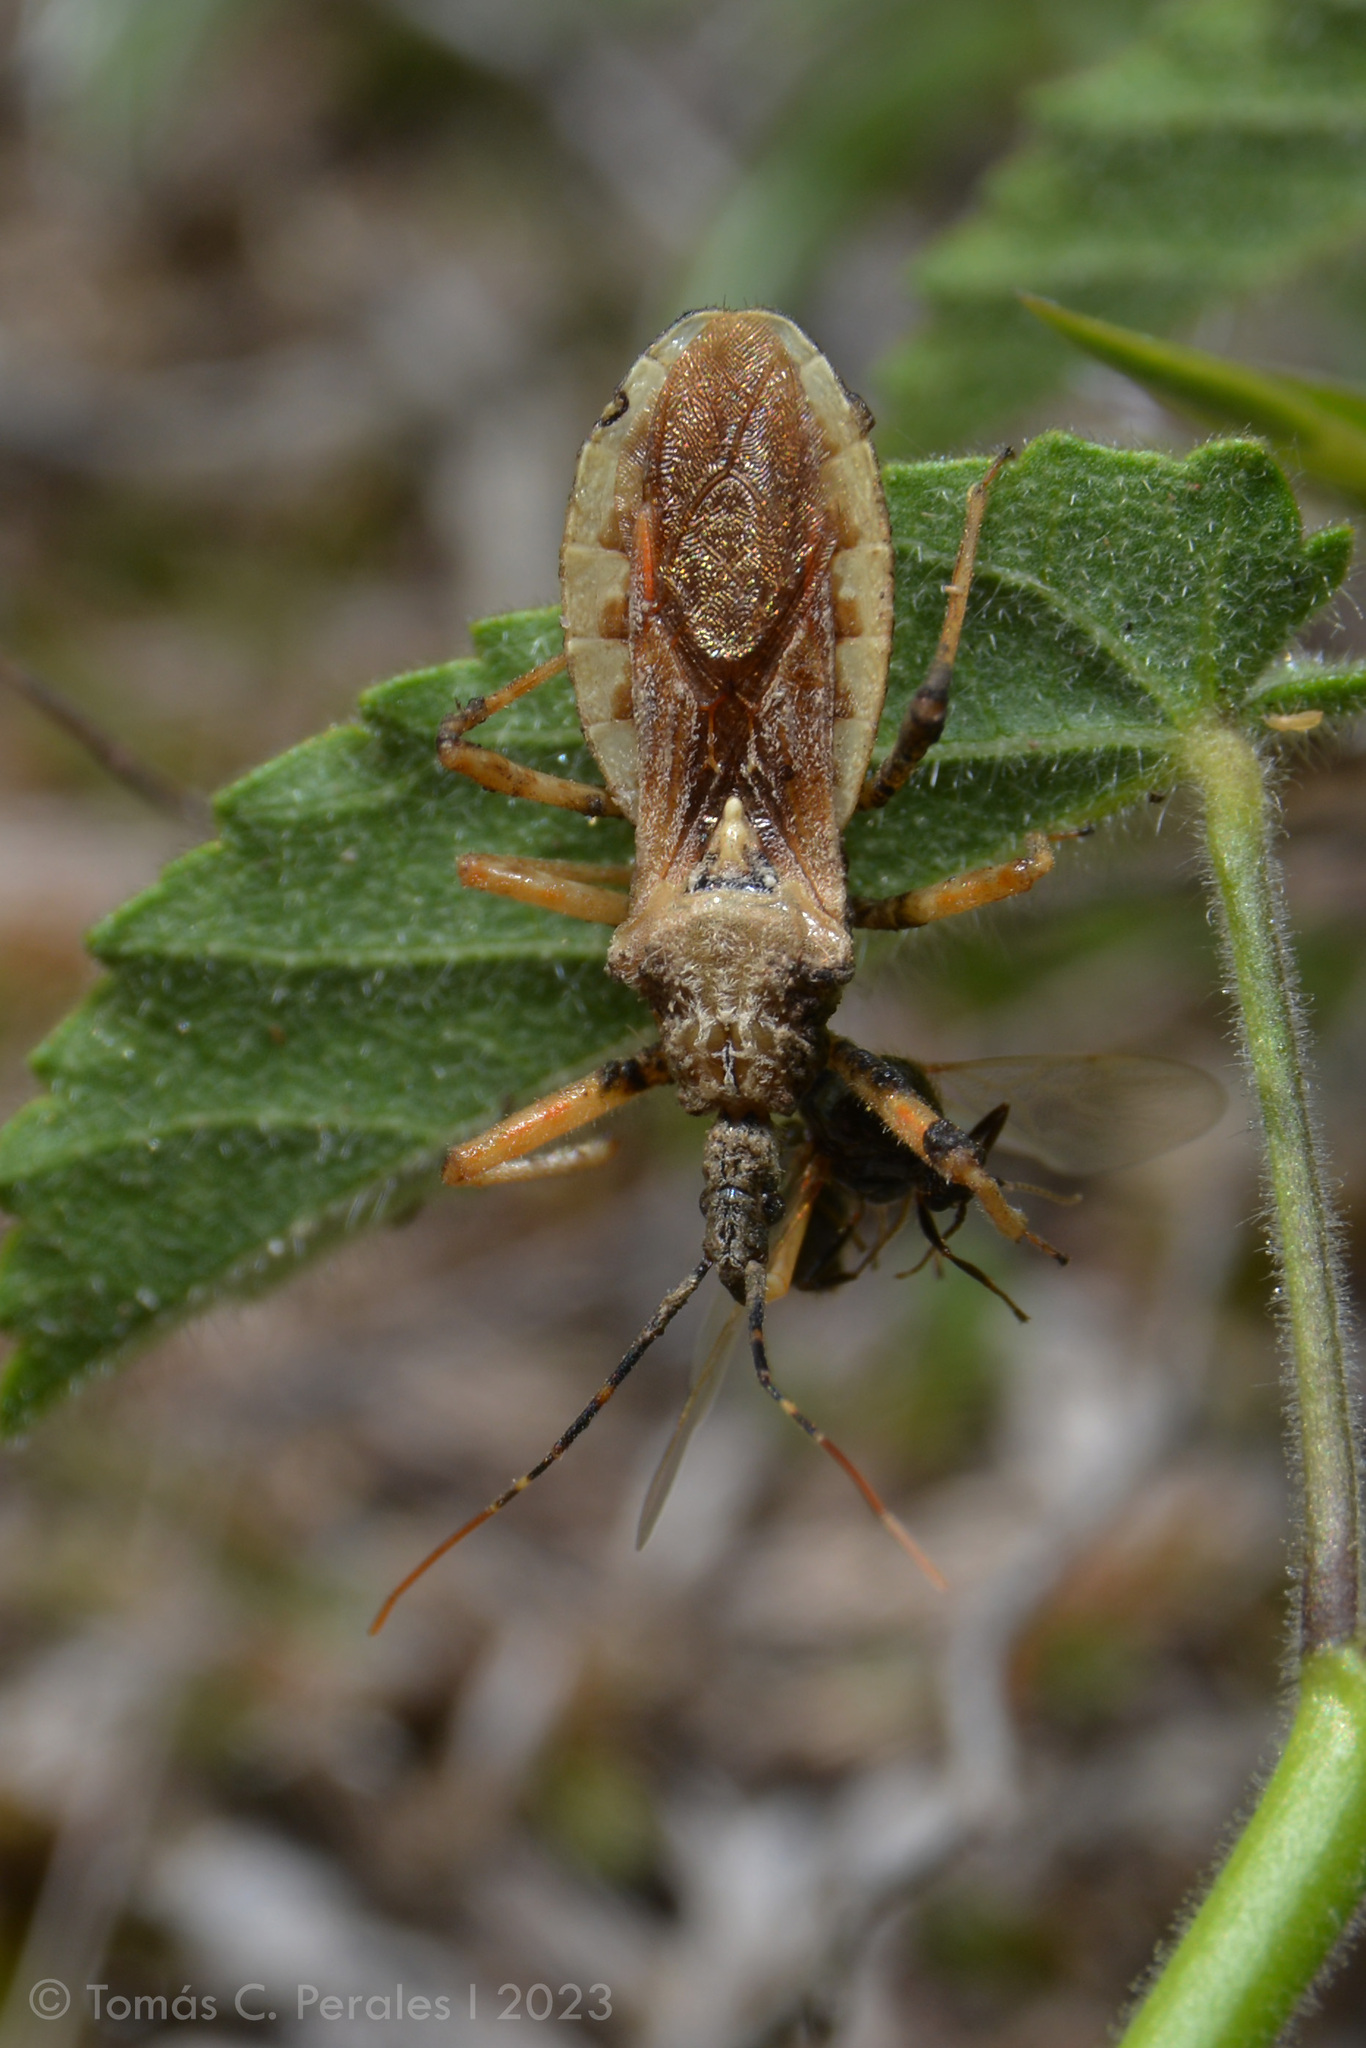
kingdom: Animalia
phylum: Arthropoda
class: Insecta
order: Hemiptera
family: Reduviidae
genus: Cosmoclopius
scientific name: Cosmoclopius pallidus
